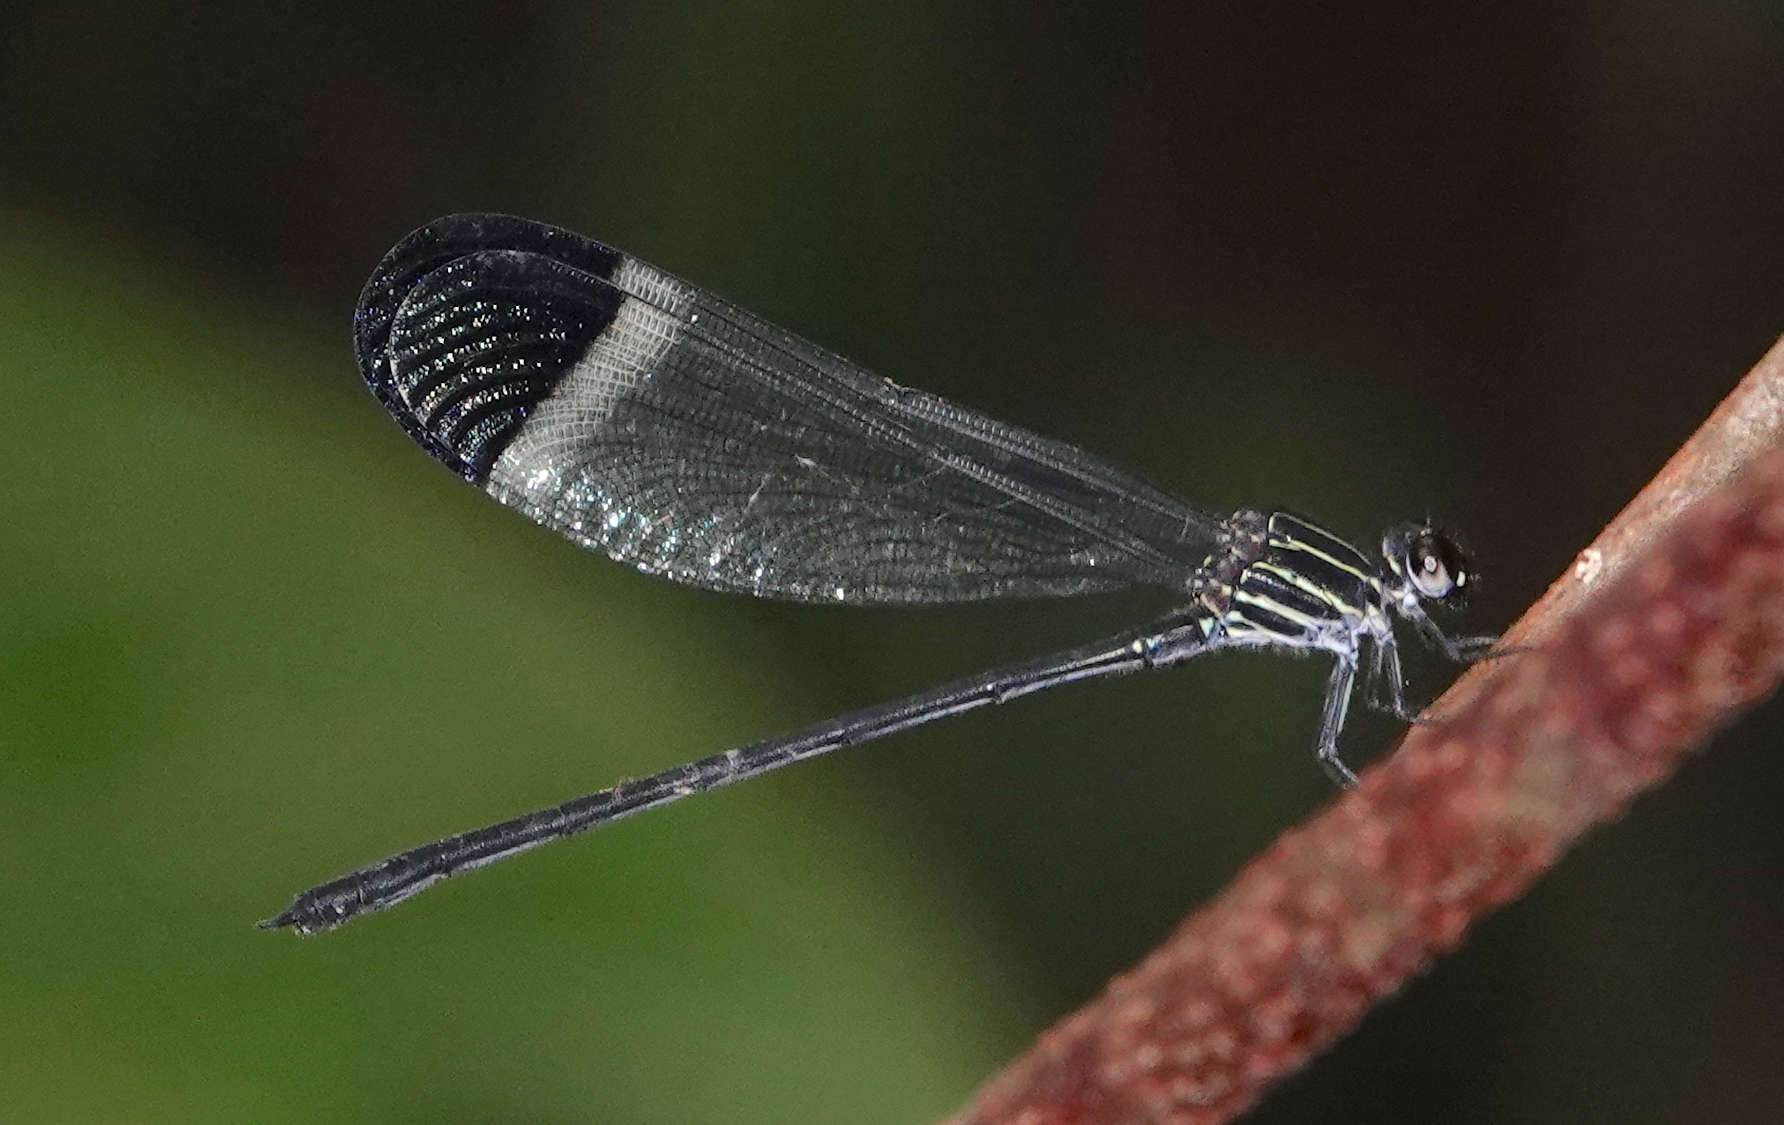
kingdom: Animalia
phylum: Arthropoda
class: Insecta
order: Odonata
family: Polythoridae
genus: Polythore
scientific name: Polythore derivata
